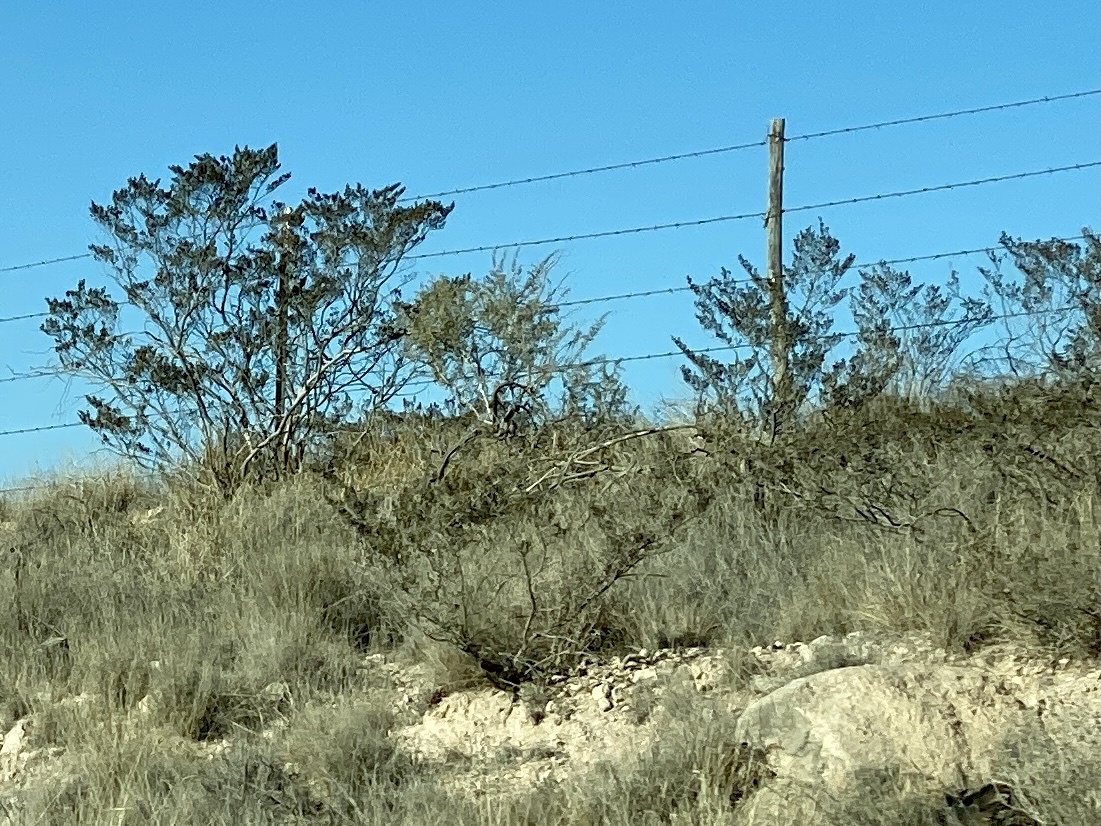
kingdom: Plantae
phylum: Tracheophyta
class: Magnoliopsida
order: Zygophyllales
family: Zygophyllaceae
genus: Larrea
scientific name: Larrea tridentata
